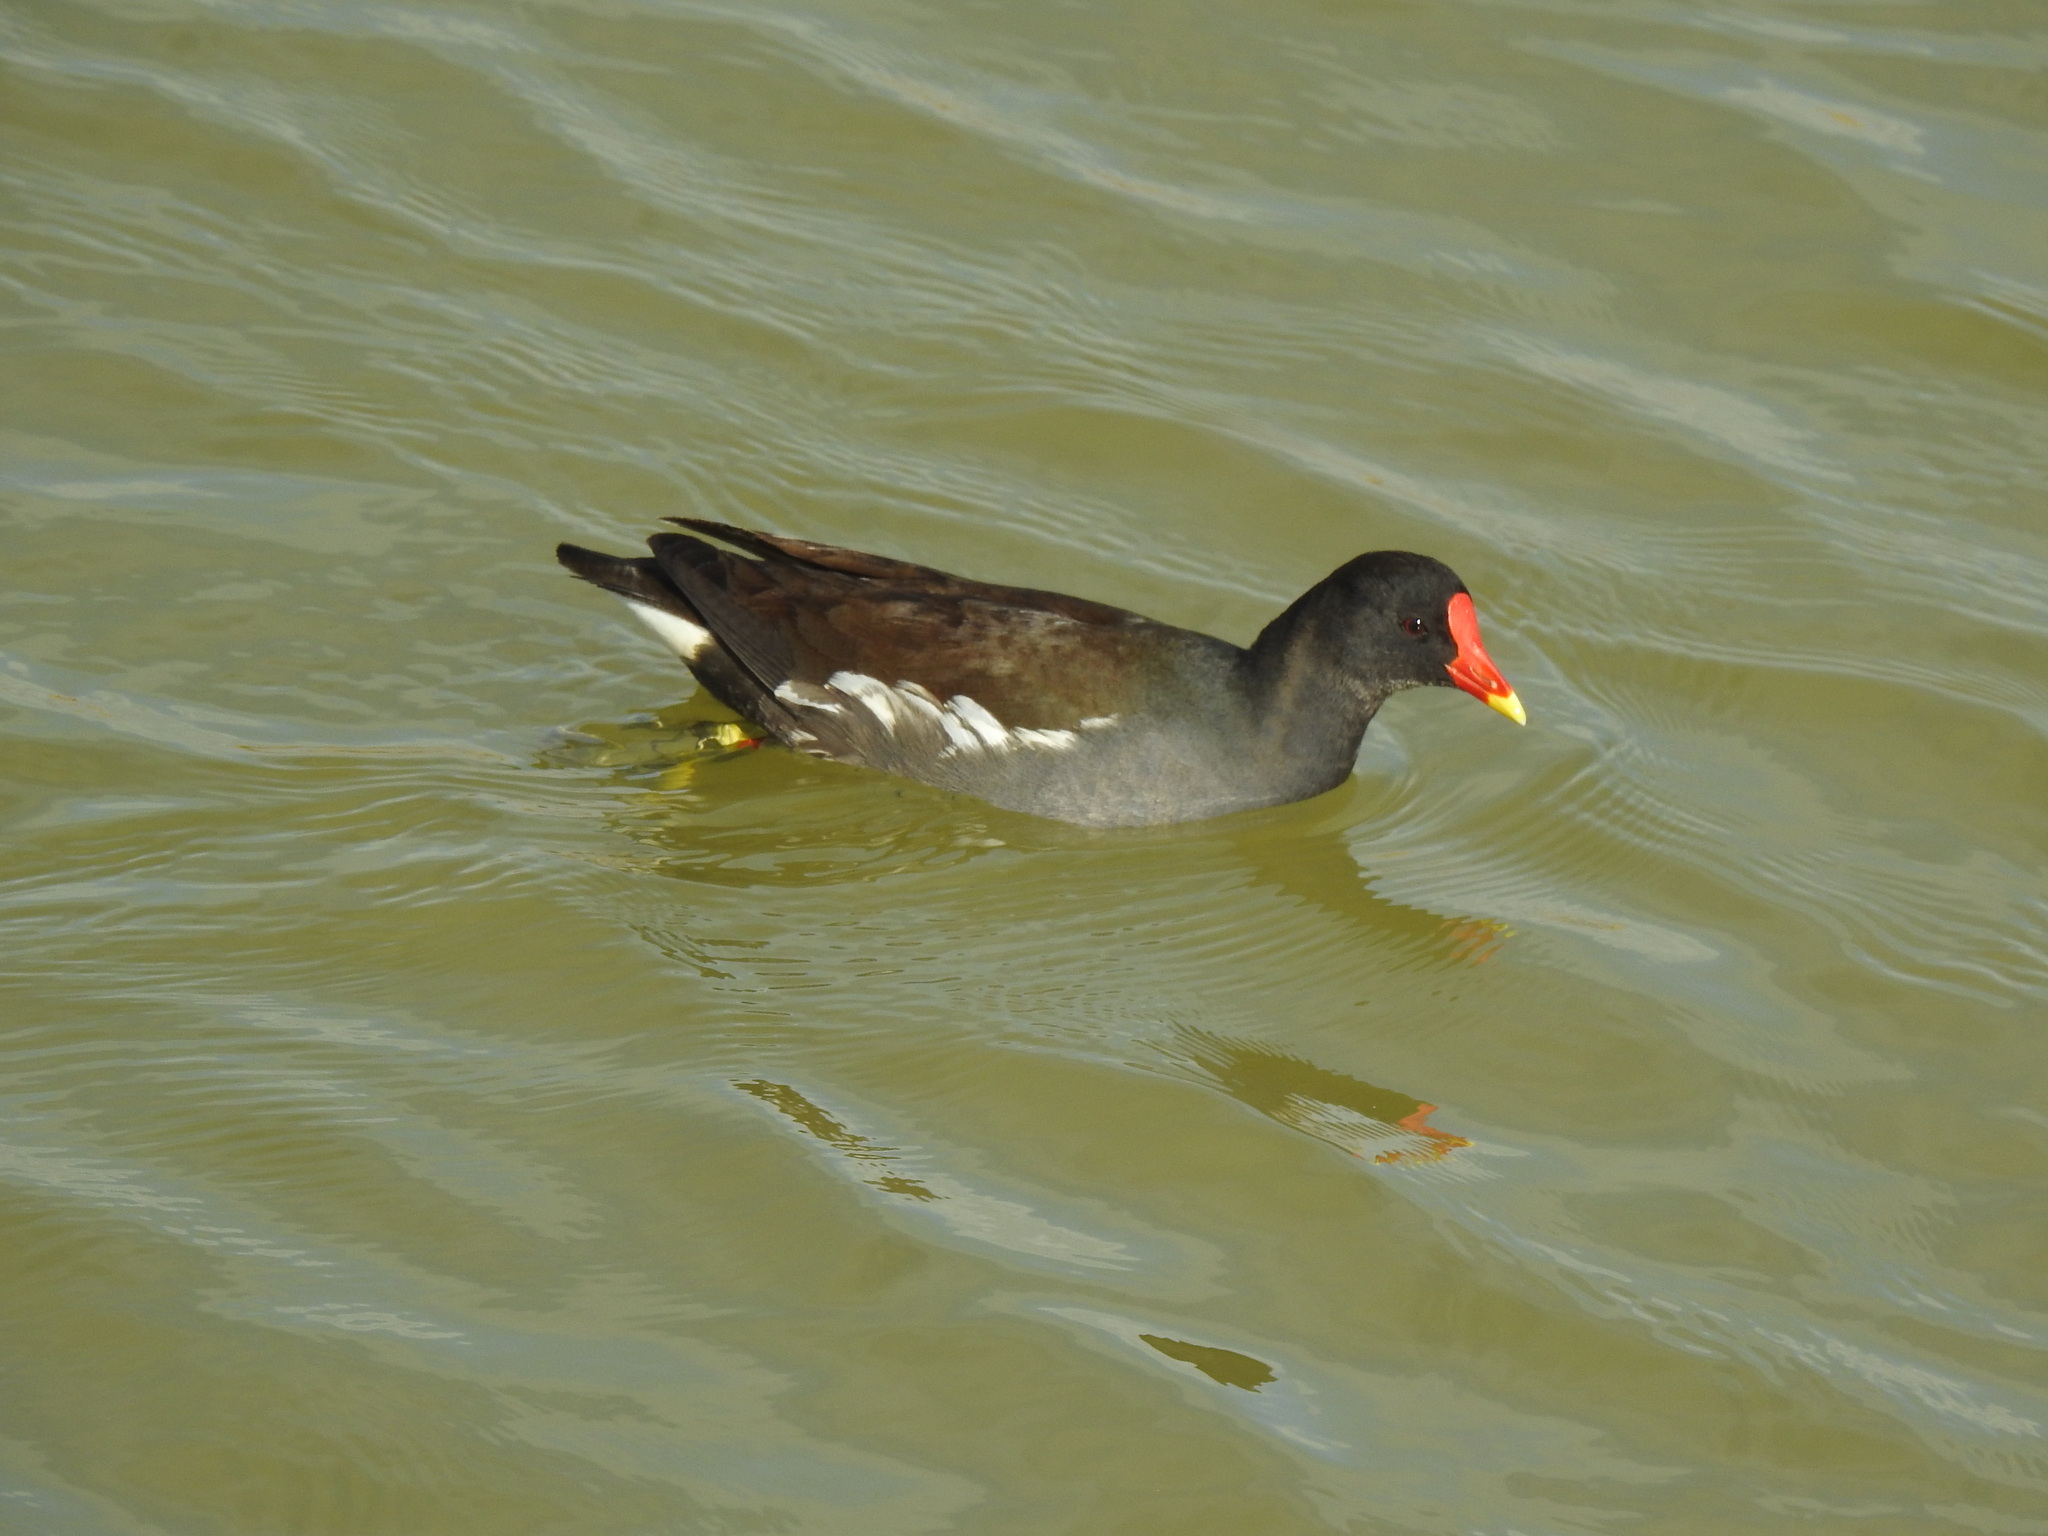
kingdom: Animalia
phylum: Chordata
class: Aves
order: Gruiformes
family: Rallidae
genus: Gallinula
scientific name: Gallinula chloropus
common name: Common moorhen
